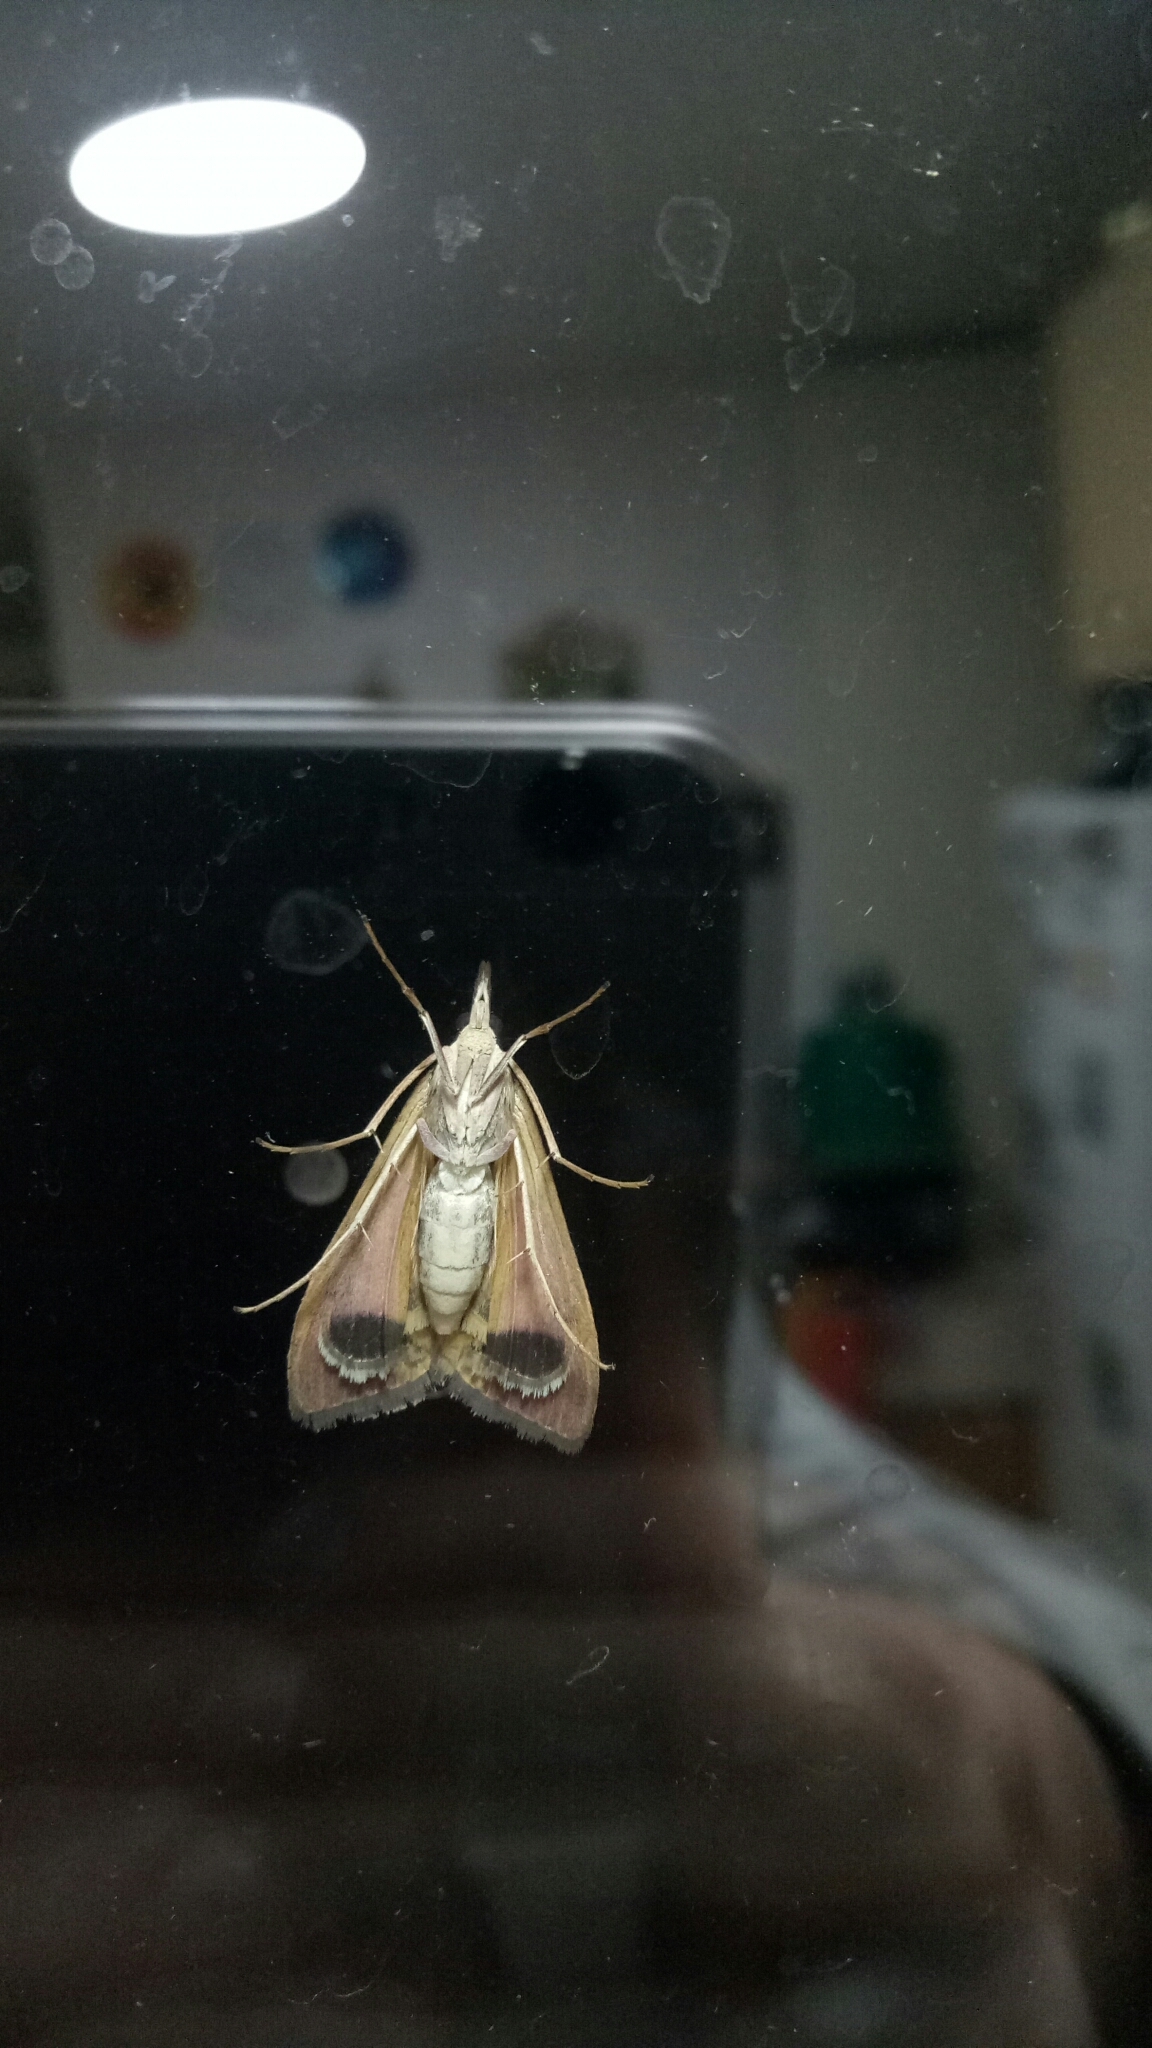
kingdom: Animalia
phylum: Arthropoda
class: Insecta
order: Lepidoptera
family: Crambidae
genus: Uresiphita
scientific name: Uresiphita ornithopteralis
